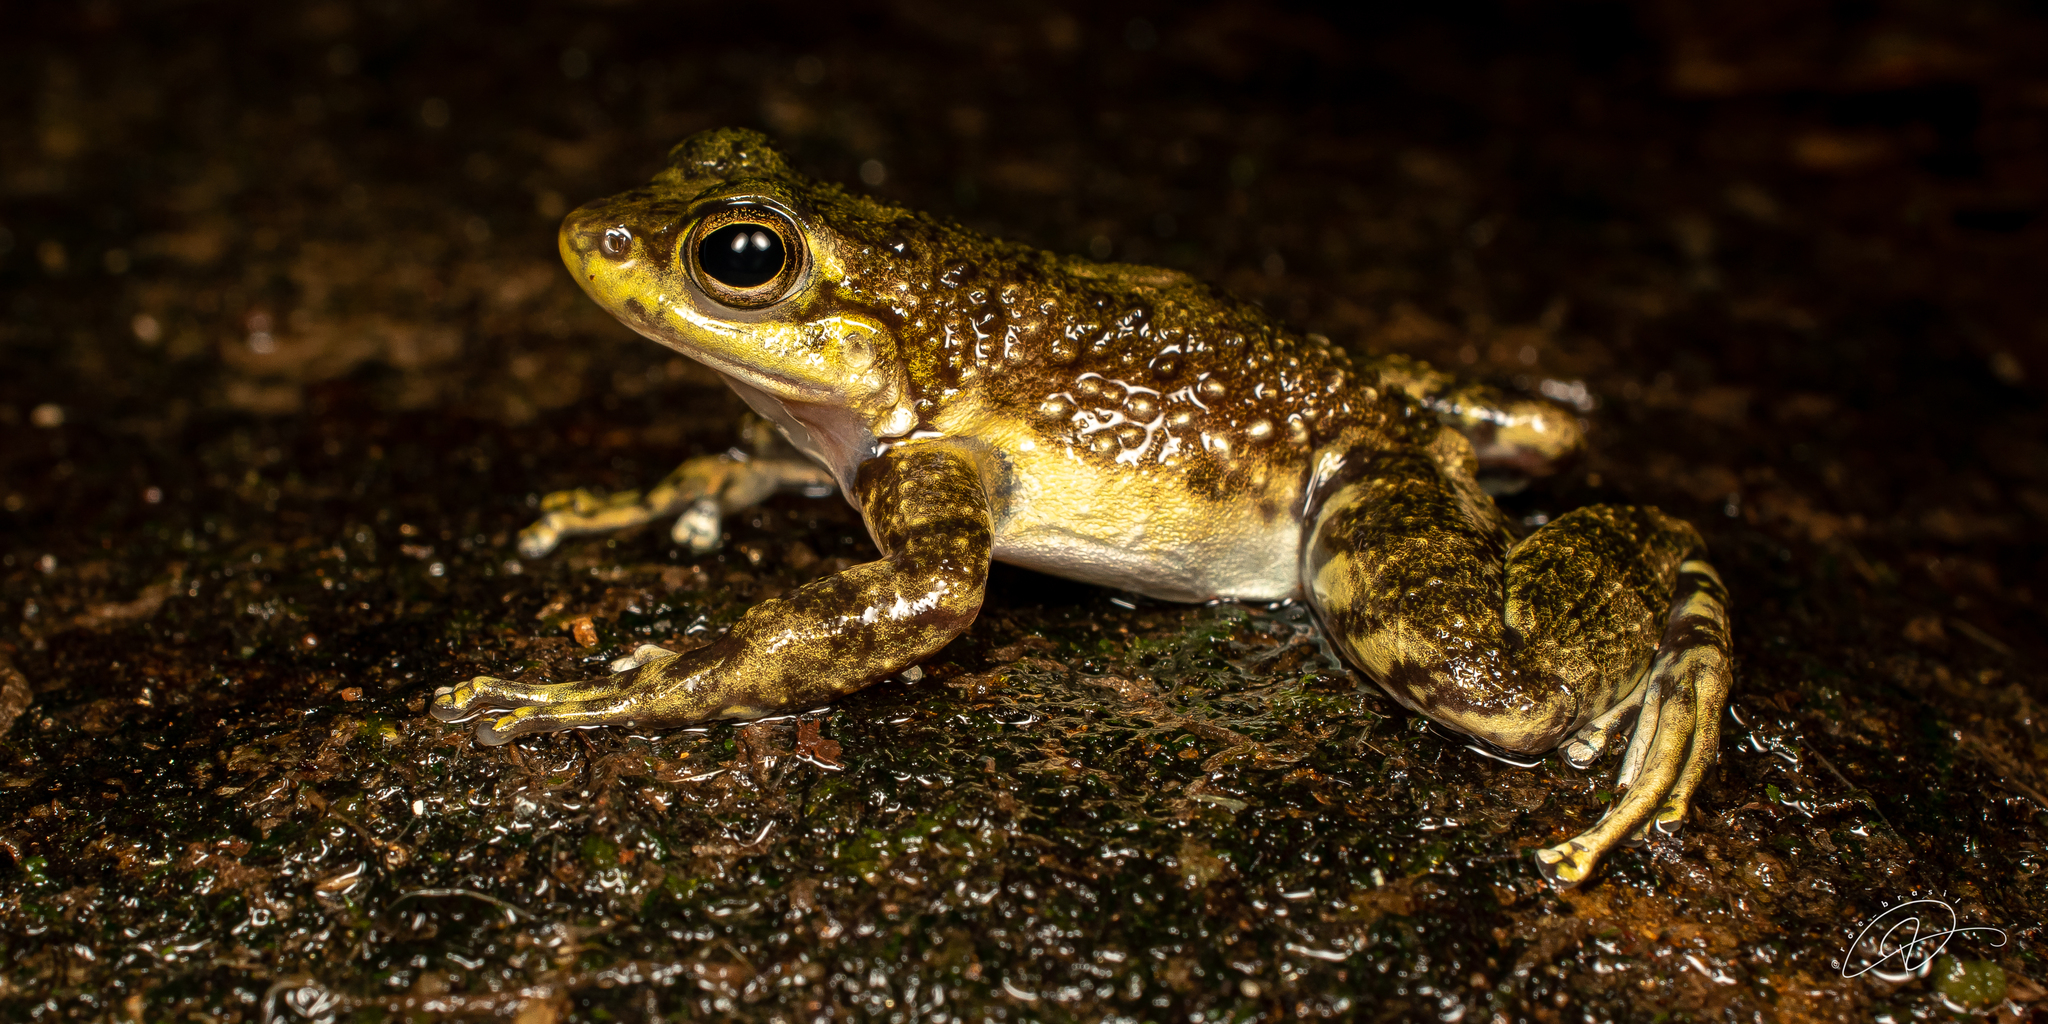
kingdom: Animalia
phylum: Chordata
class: Amphibia
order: Anura
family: Hylodidae
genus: Hylodes
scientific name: Hylodes asper
